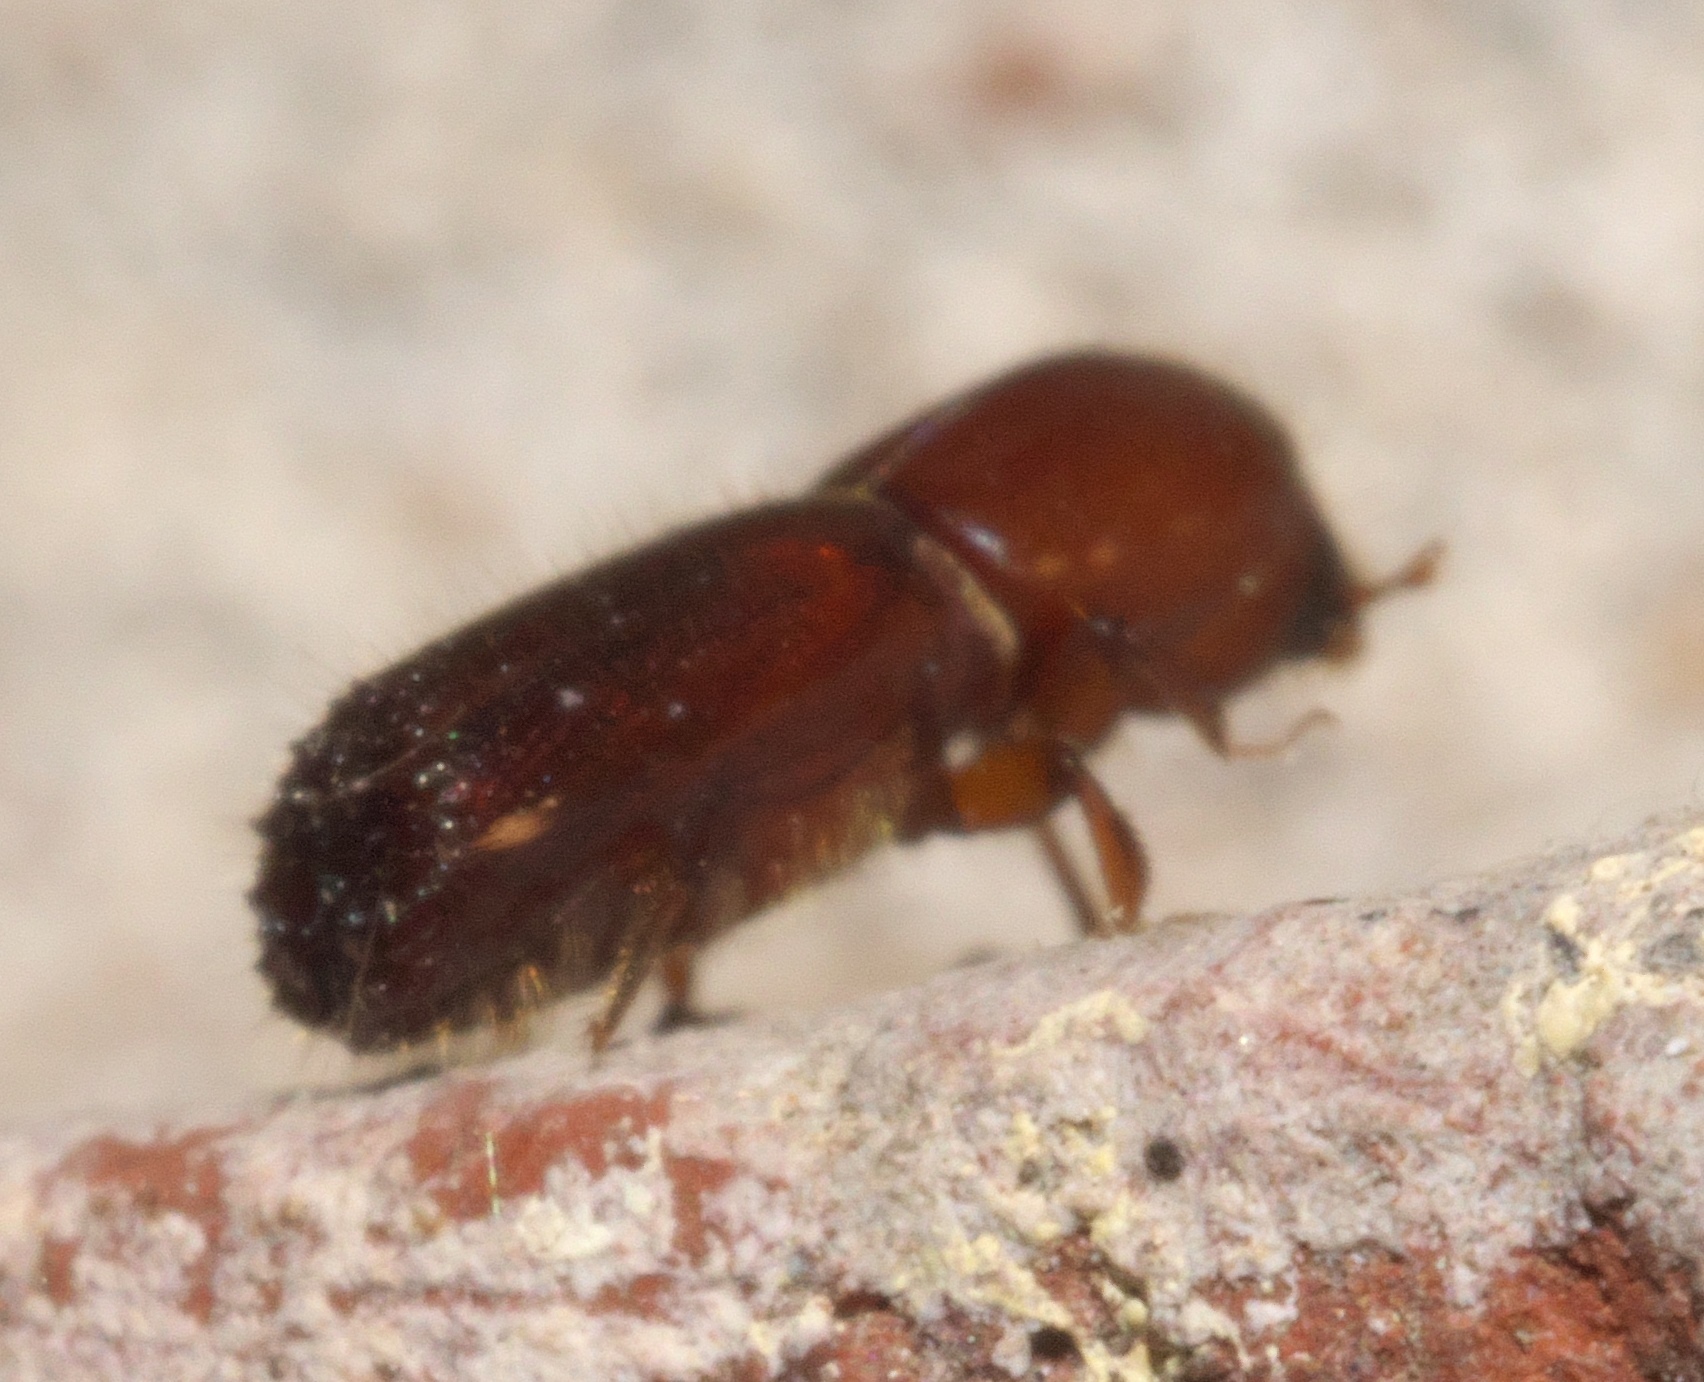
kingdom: Animalia
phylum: Arthropoda
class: Insecta
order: Coleoptera
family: Curculionidae
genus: Xyleborus
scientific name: Xyleborus celsus
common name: Weevil
